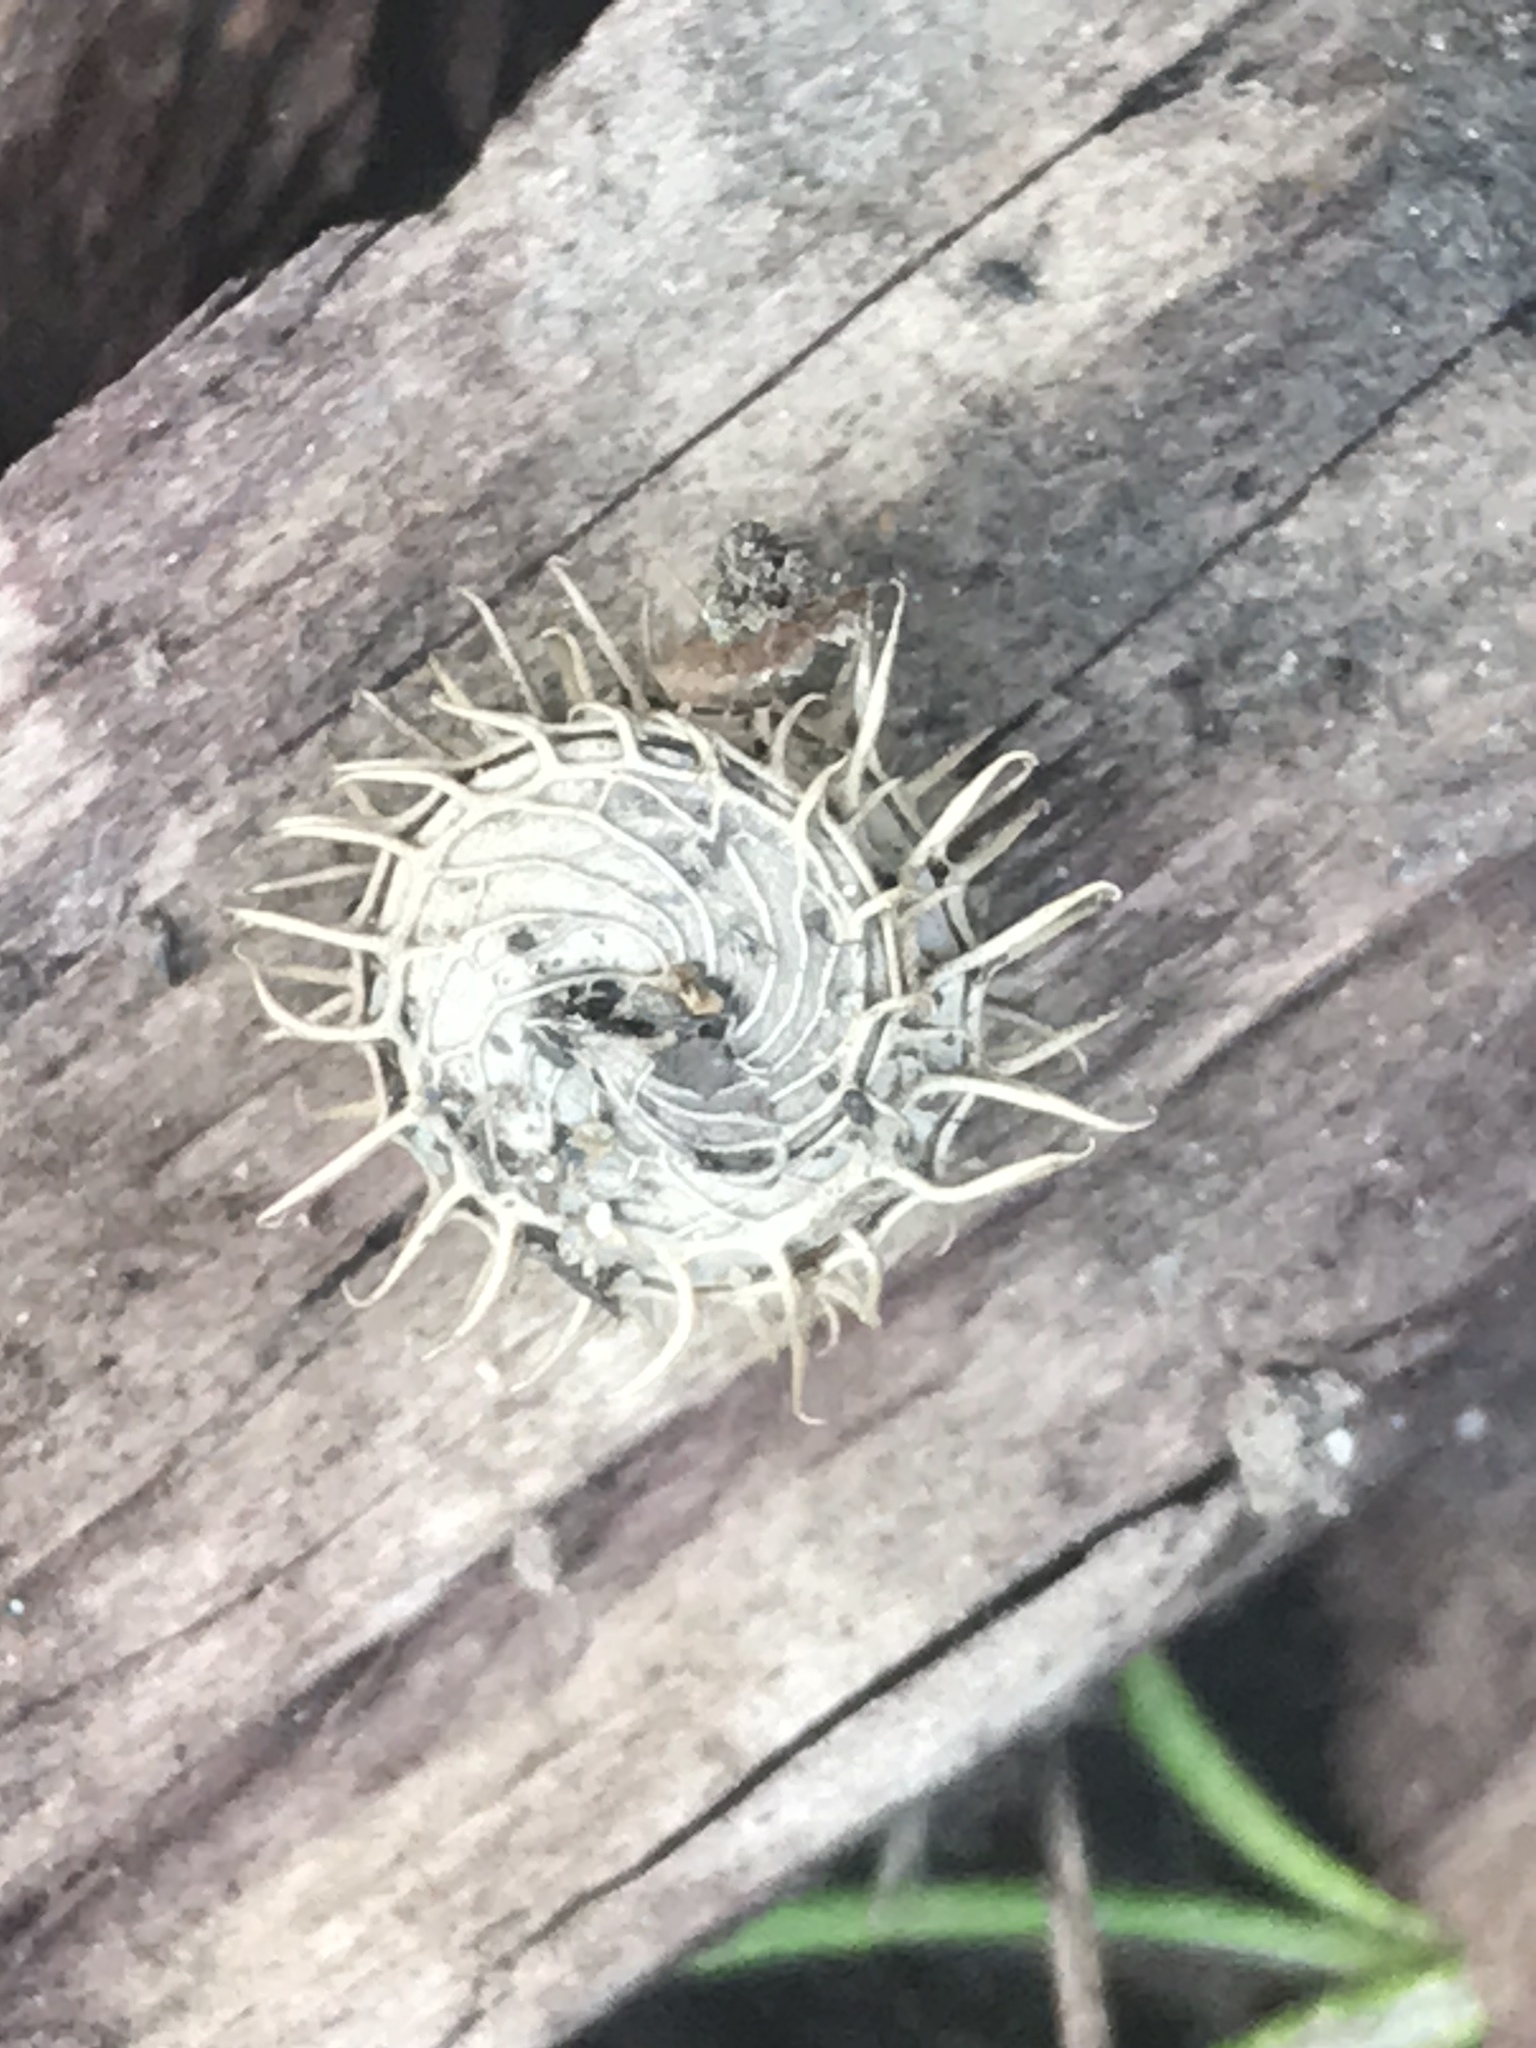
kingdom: Plantae
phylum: Tracheophyta
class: Magnoliopsida
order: Fabales
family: Fabaceae
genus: Medicago
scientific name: Medicago polymorpha
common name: Burclover
